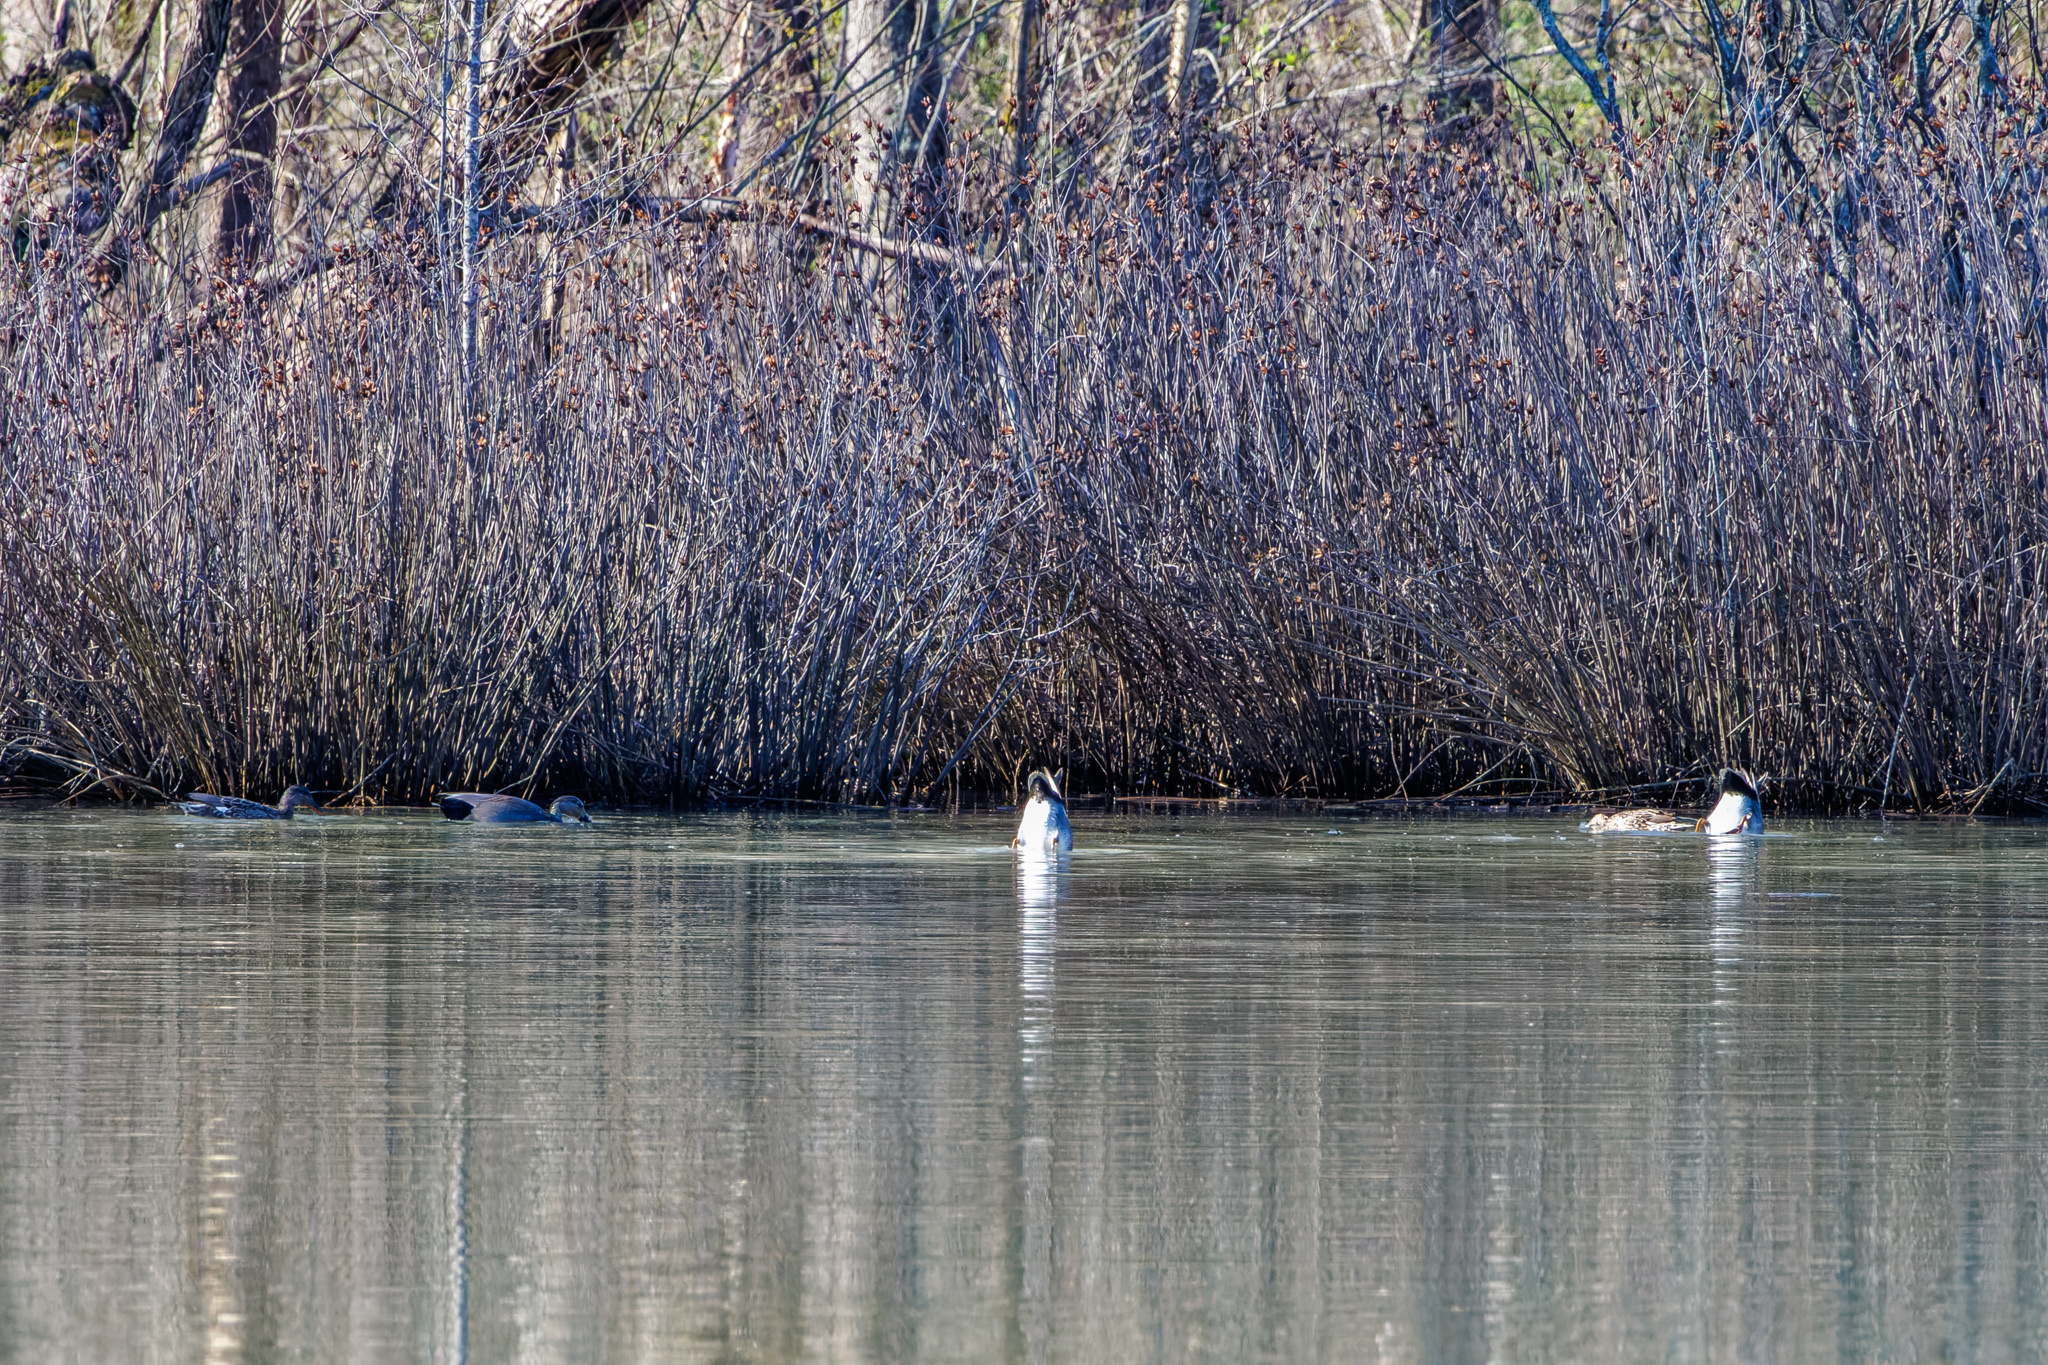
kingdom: Animalia
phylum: Chordata
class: Aves
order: Anseriformes
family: Anatidae
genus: Mareca
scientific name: Mareca strepera
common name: Gadwall
